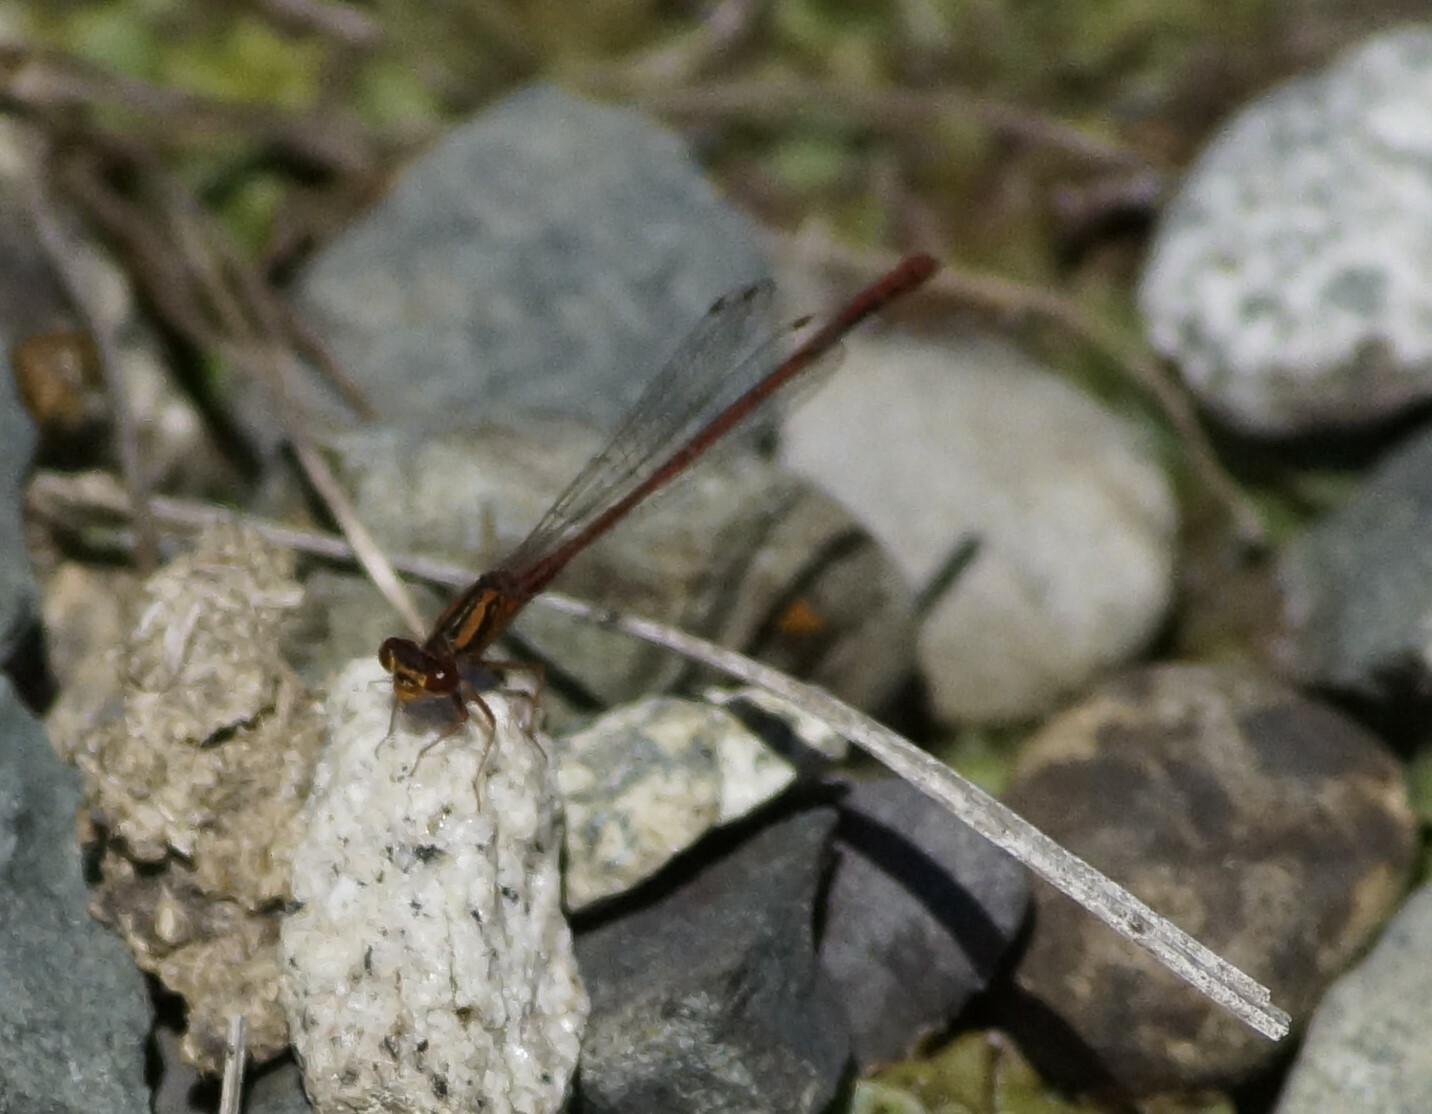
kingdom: Animalia
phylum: Arthropoda
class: Insecta
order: Odonata
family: Coenagrionidae
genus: Xanthocnemis
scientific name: Xanthocnemis zealandica
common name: Common redcoat damselfly
